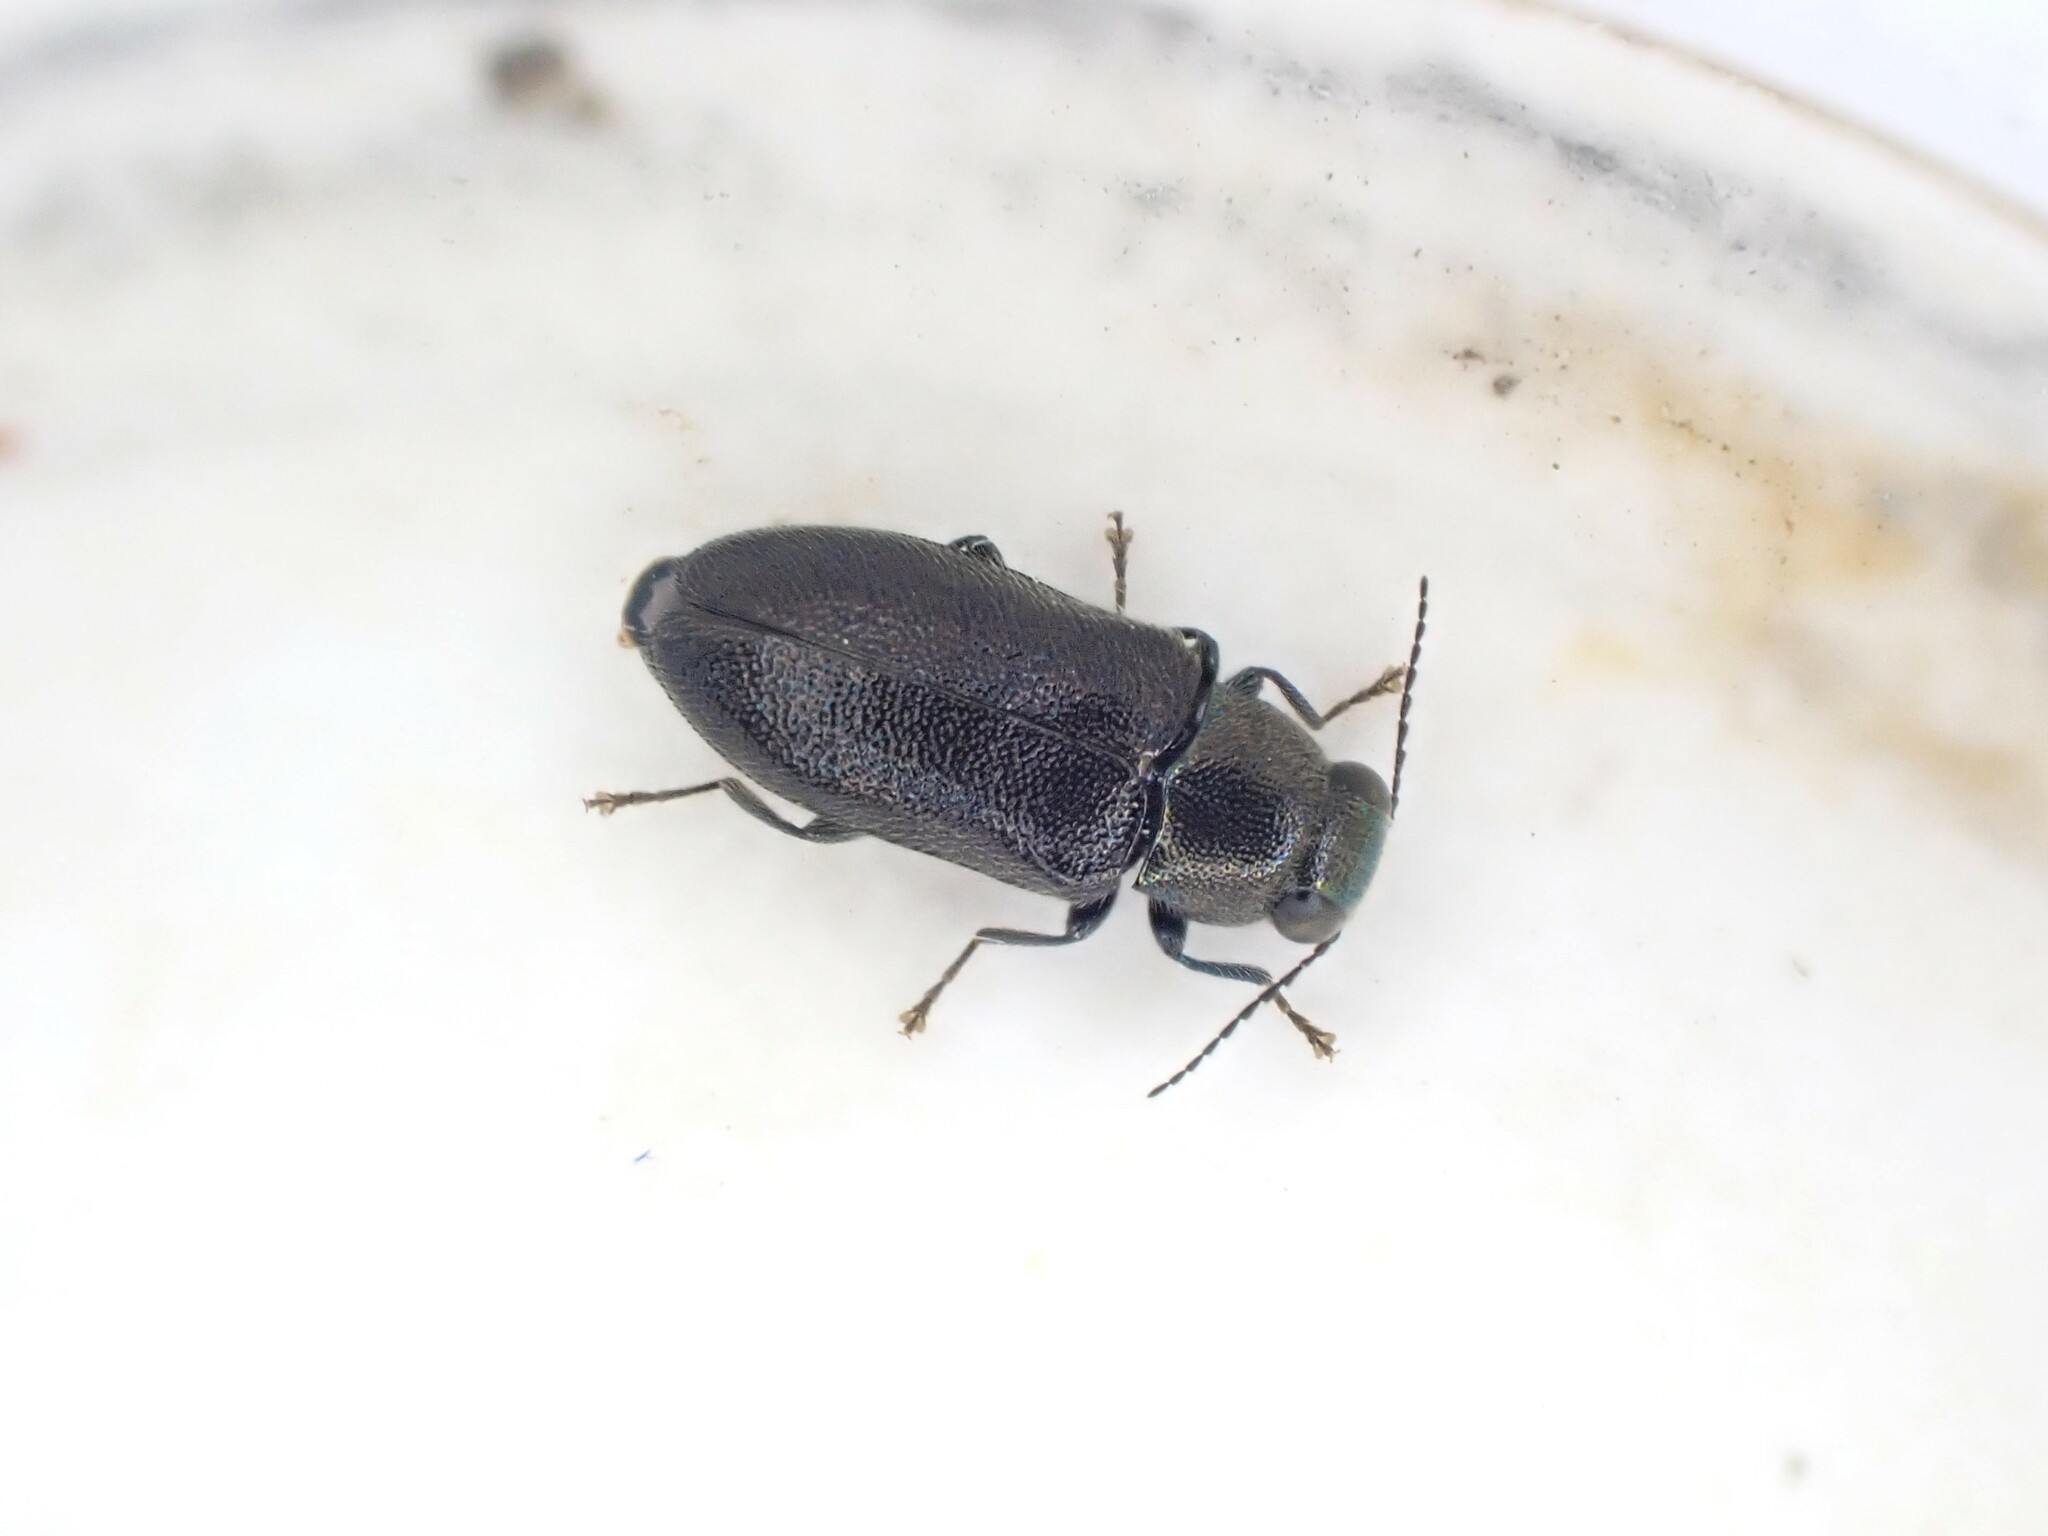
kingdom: Animalia
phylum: Arthropoda
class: Insecta
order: Coleoptera
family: Buprestidae
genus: Maoraxia
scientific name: Maoraxia eremita
